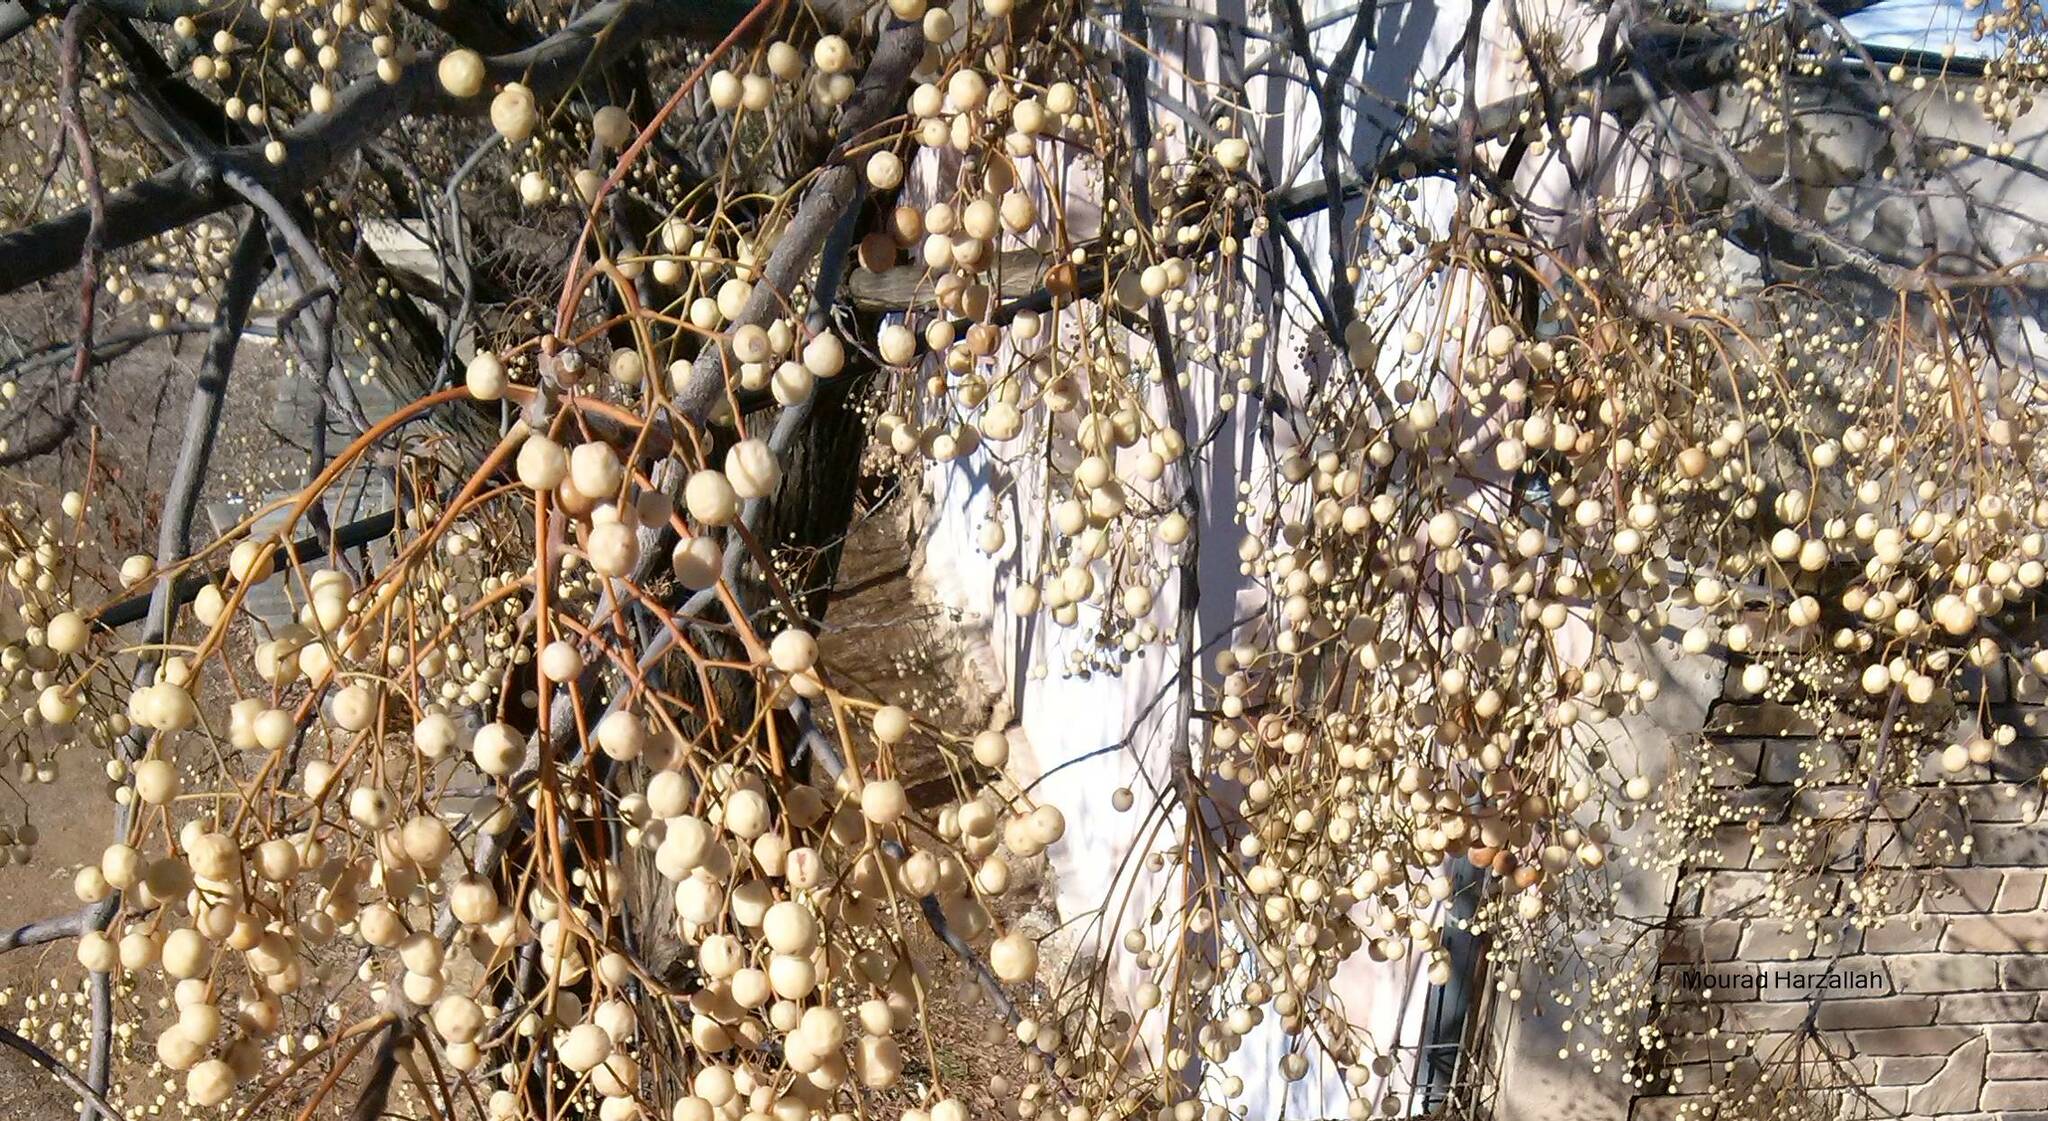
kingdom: Plantae
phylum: Tracheophyta
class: Magnoliopsida
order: Sapindales
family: Meliaceae
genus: Melia
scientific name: Melia azedarach
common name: Chinaberrytree
